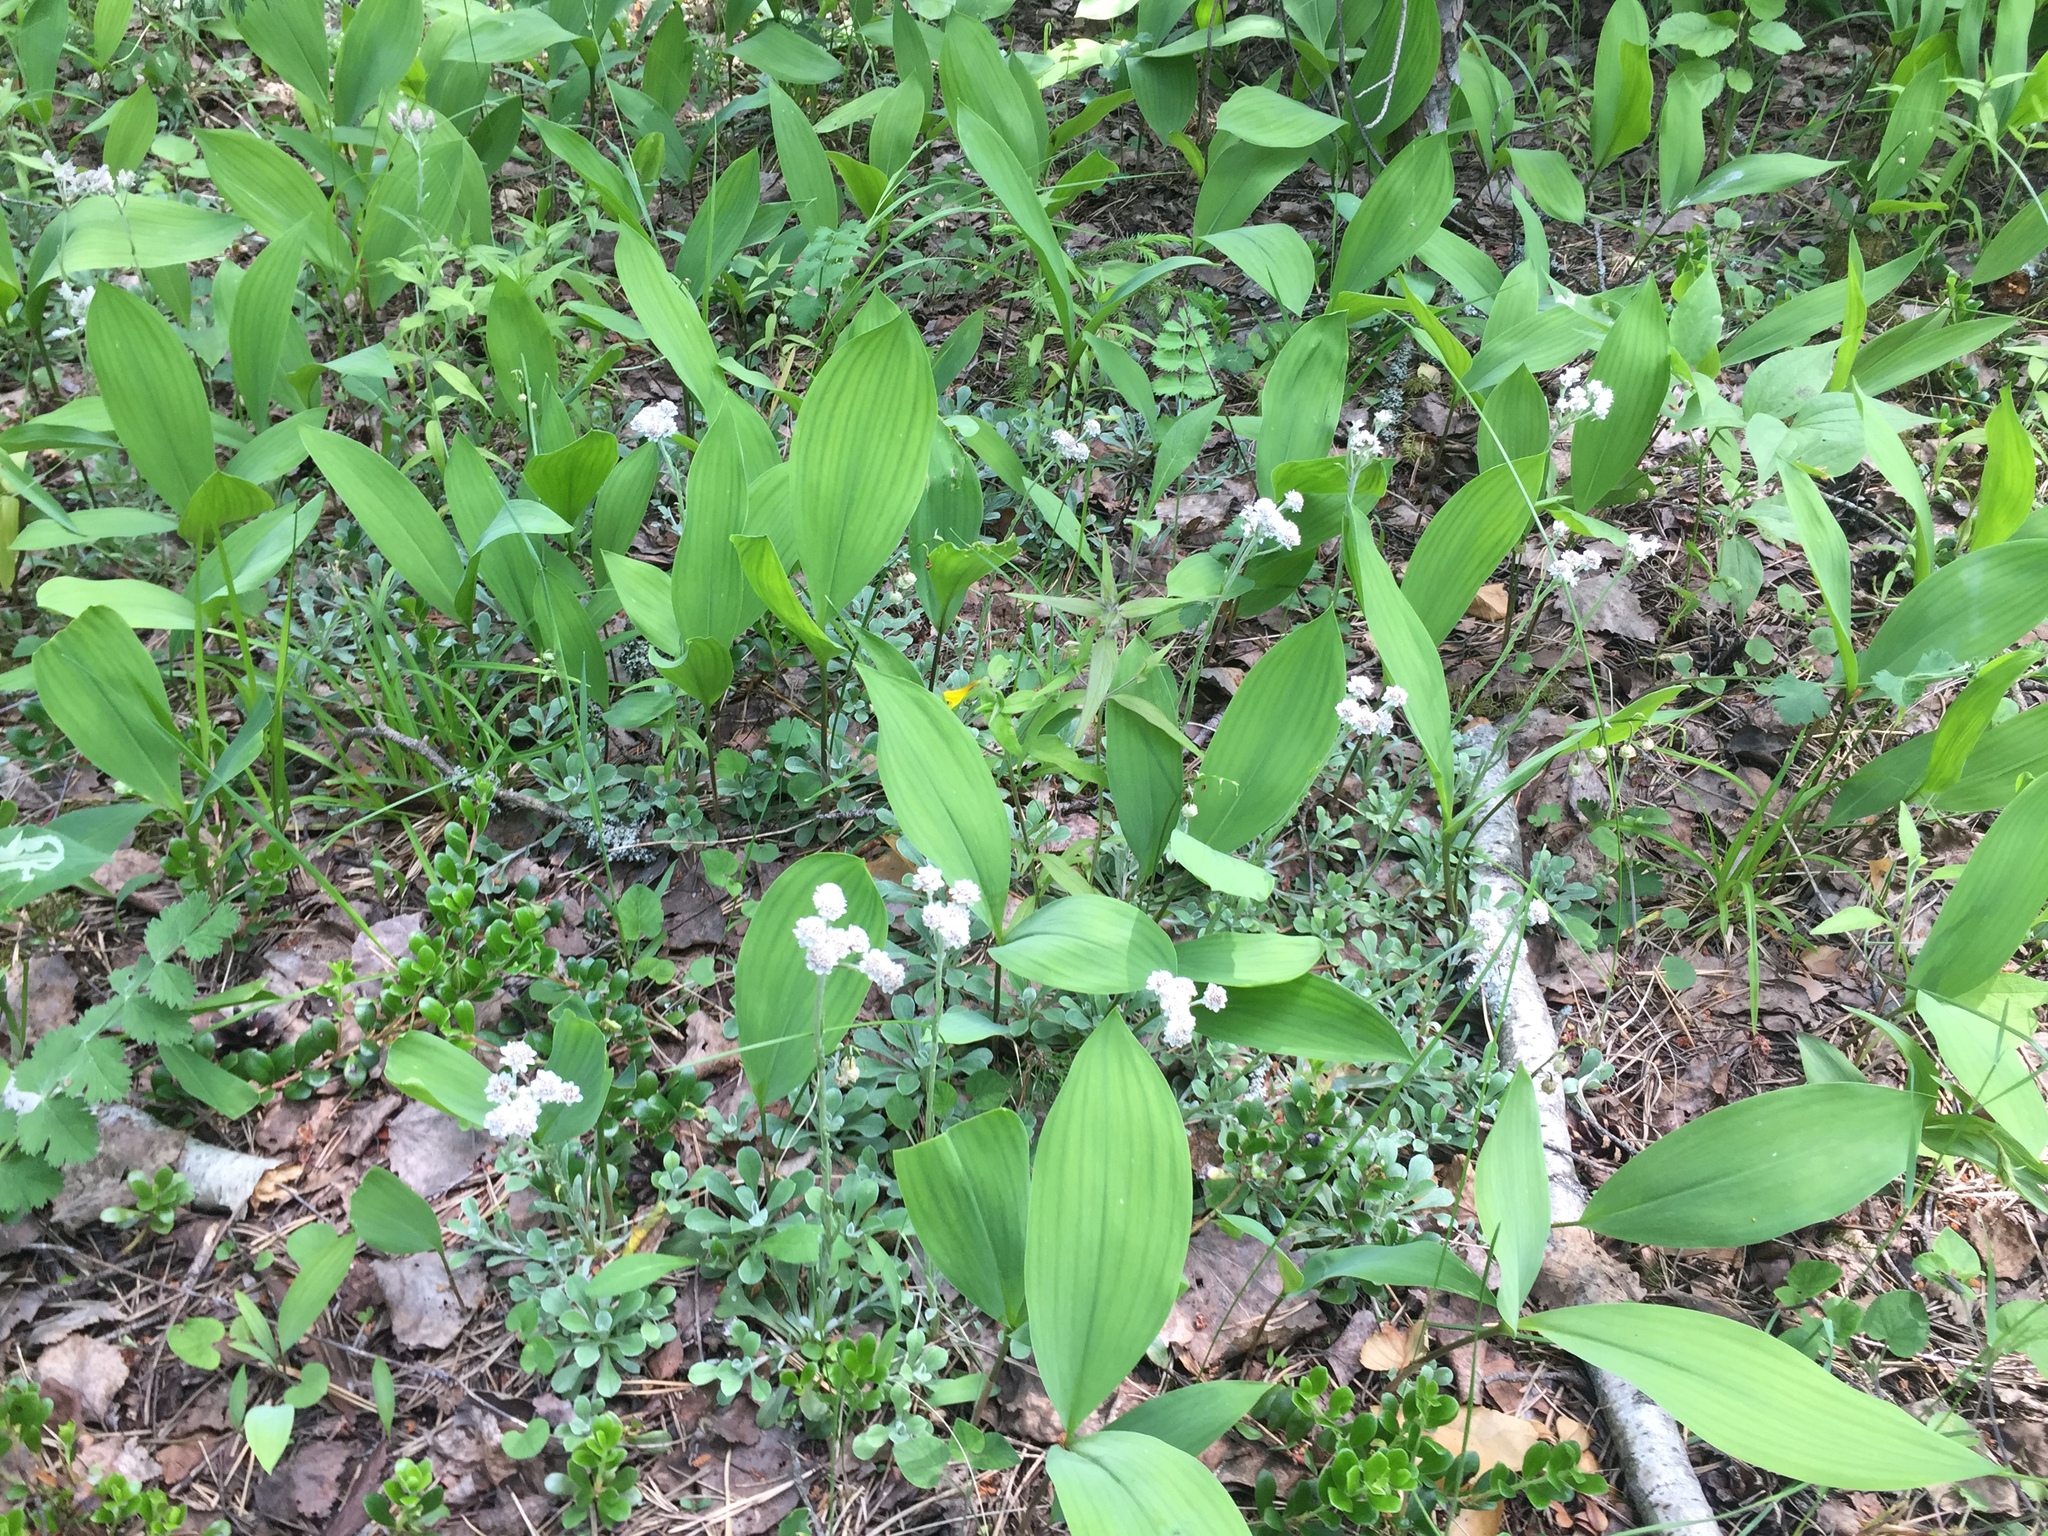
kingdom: Plantae
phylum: Tracheophyta
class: Magnoliopsida
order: Asterales
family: Asteraceae
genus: Antennaria
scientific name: Antennaria dioica
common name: Mountain everlasting
